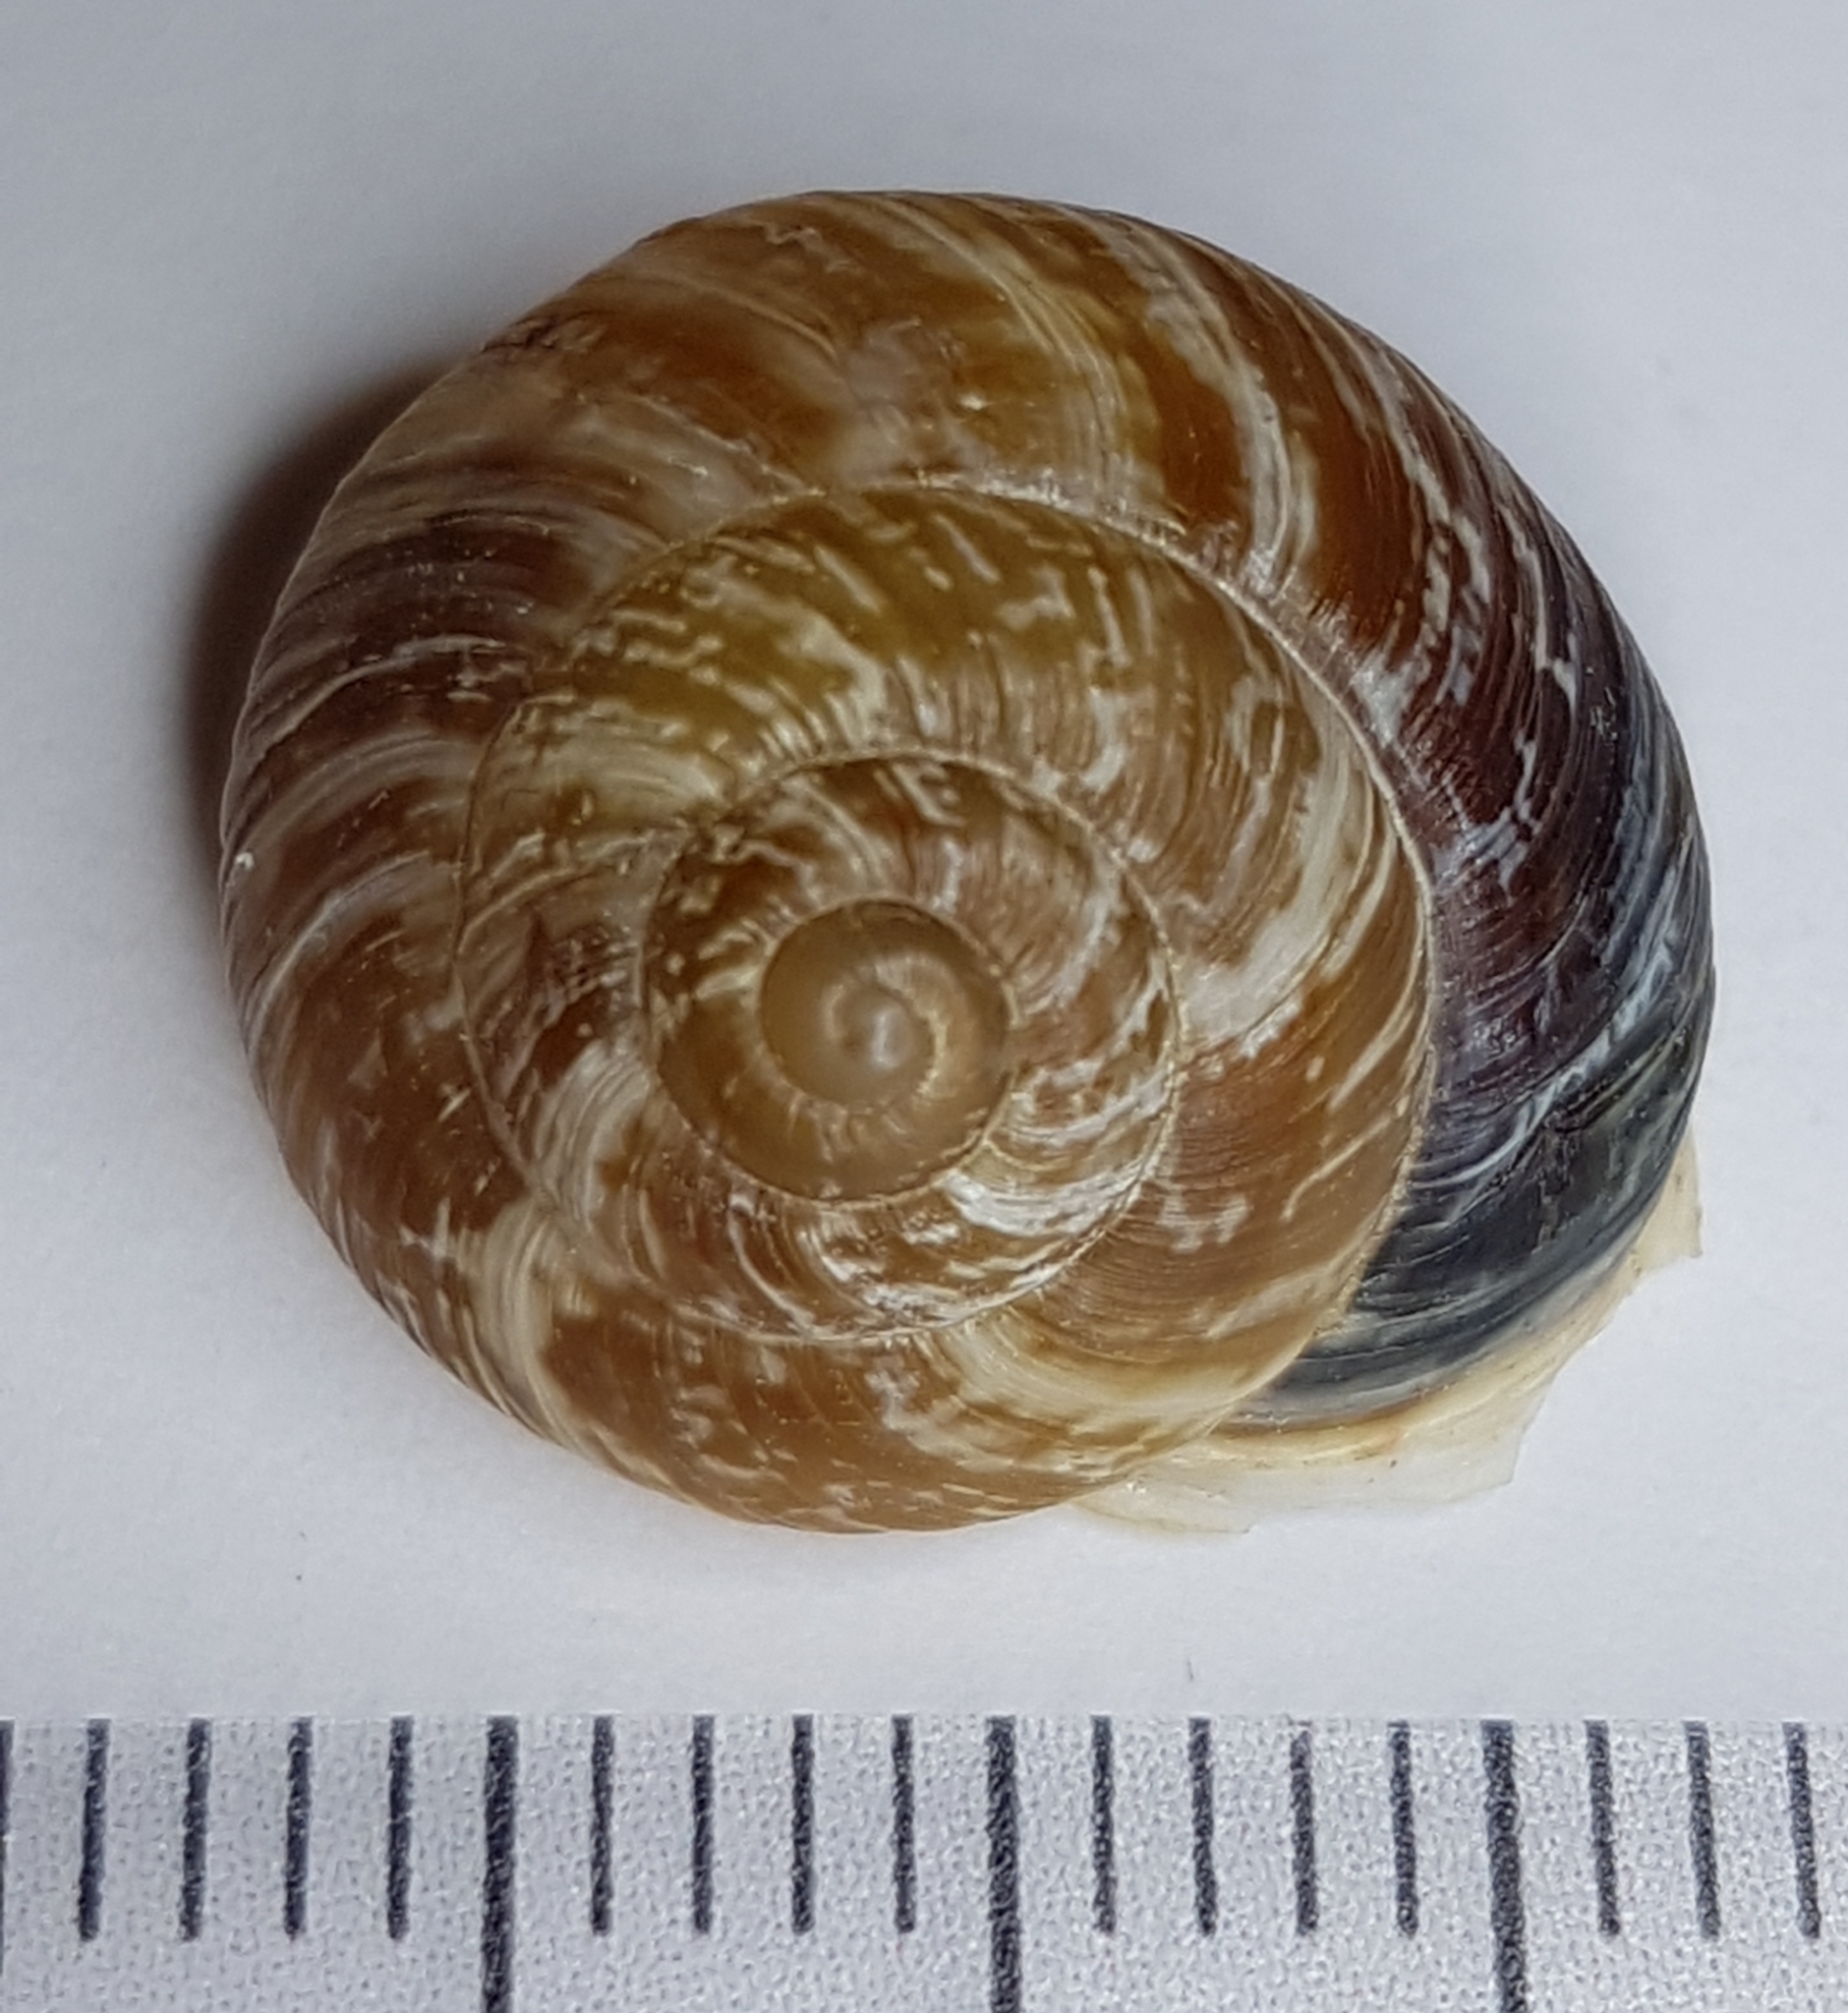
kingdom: Animalia
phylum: Mollusca
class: Gastropoda
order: Stylommatophora
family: Helicidae
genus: Marmorana
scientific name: Marmorana muralis
